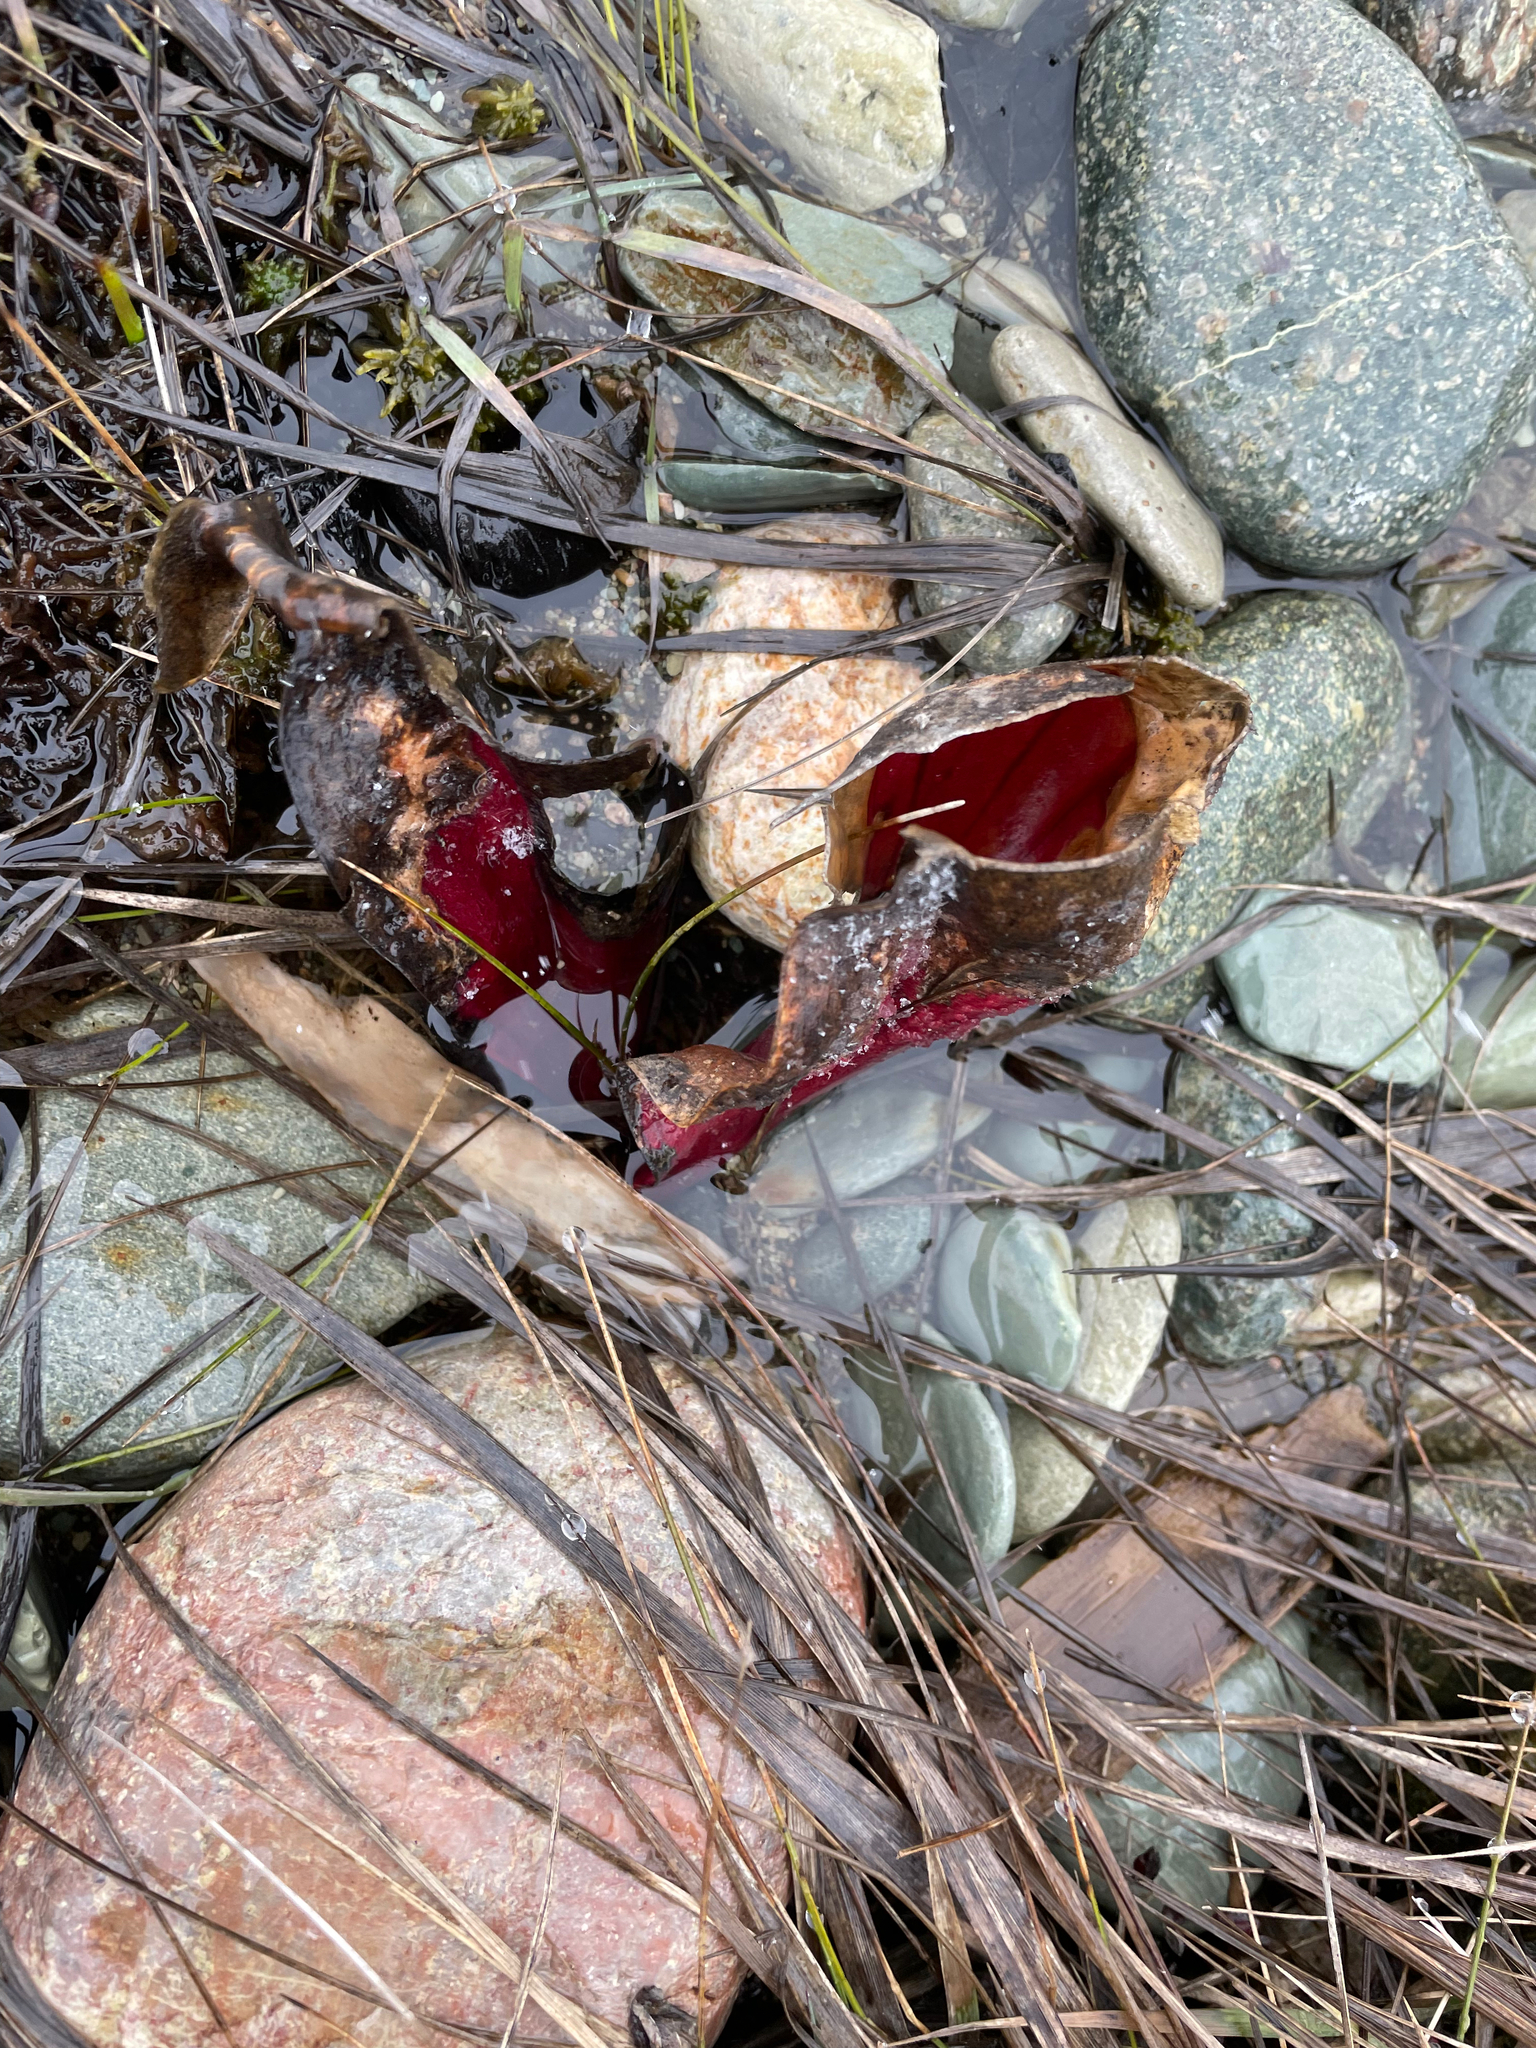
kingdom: Plantae
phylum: Tracheophyta
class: Magnoliopsida
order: Ericales
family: Sarraceniaceae
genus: Sarracenia
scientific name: Sarracenia purpurea
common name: Pitcherplant
